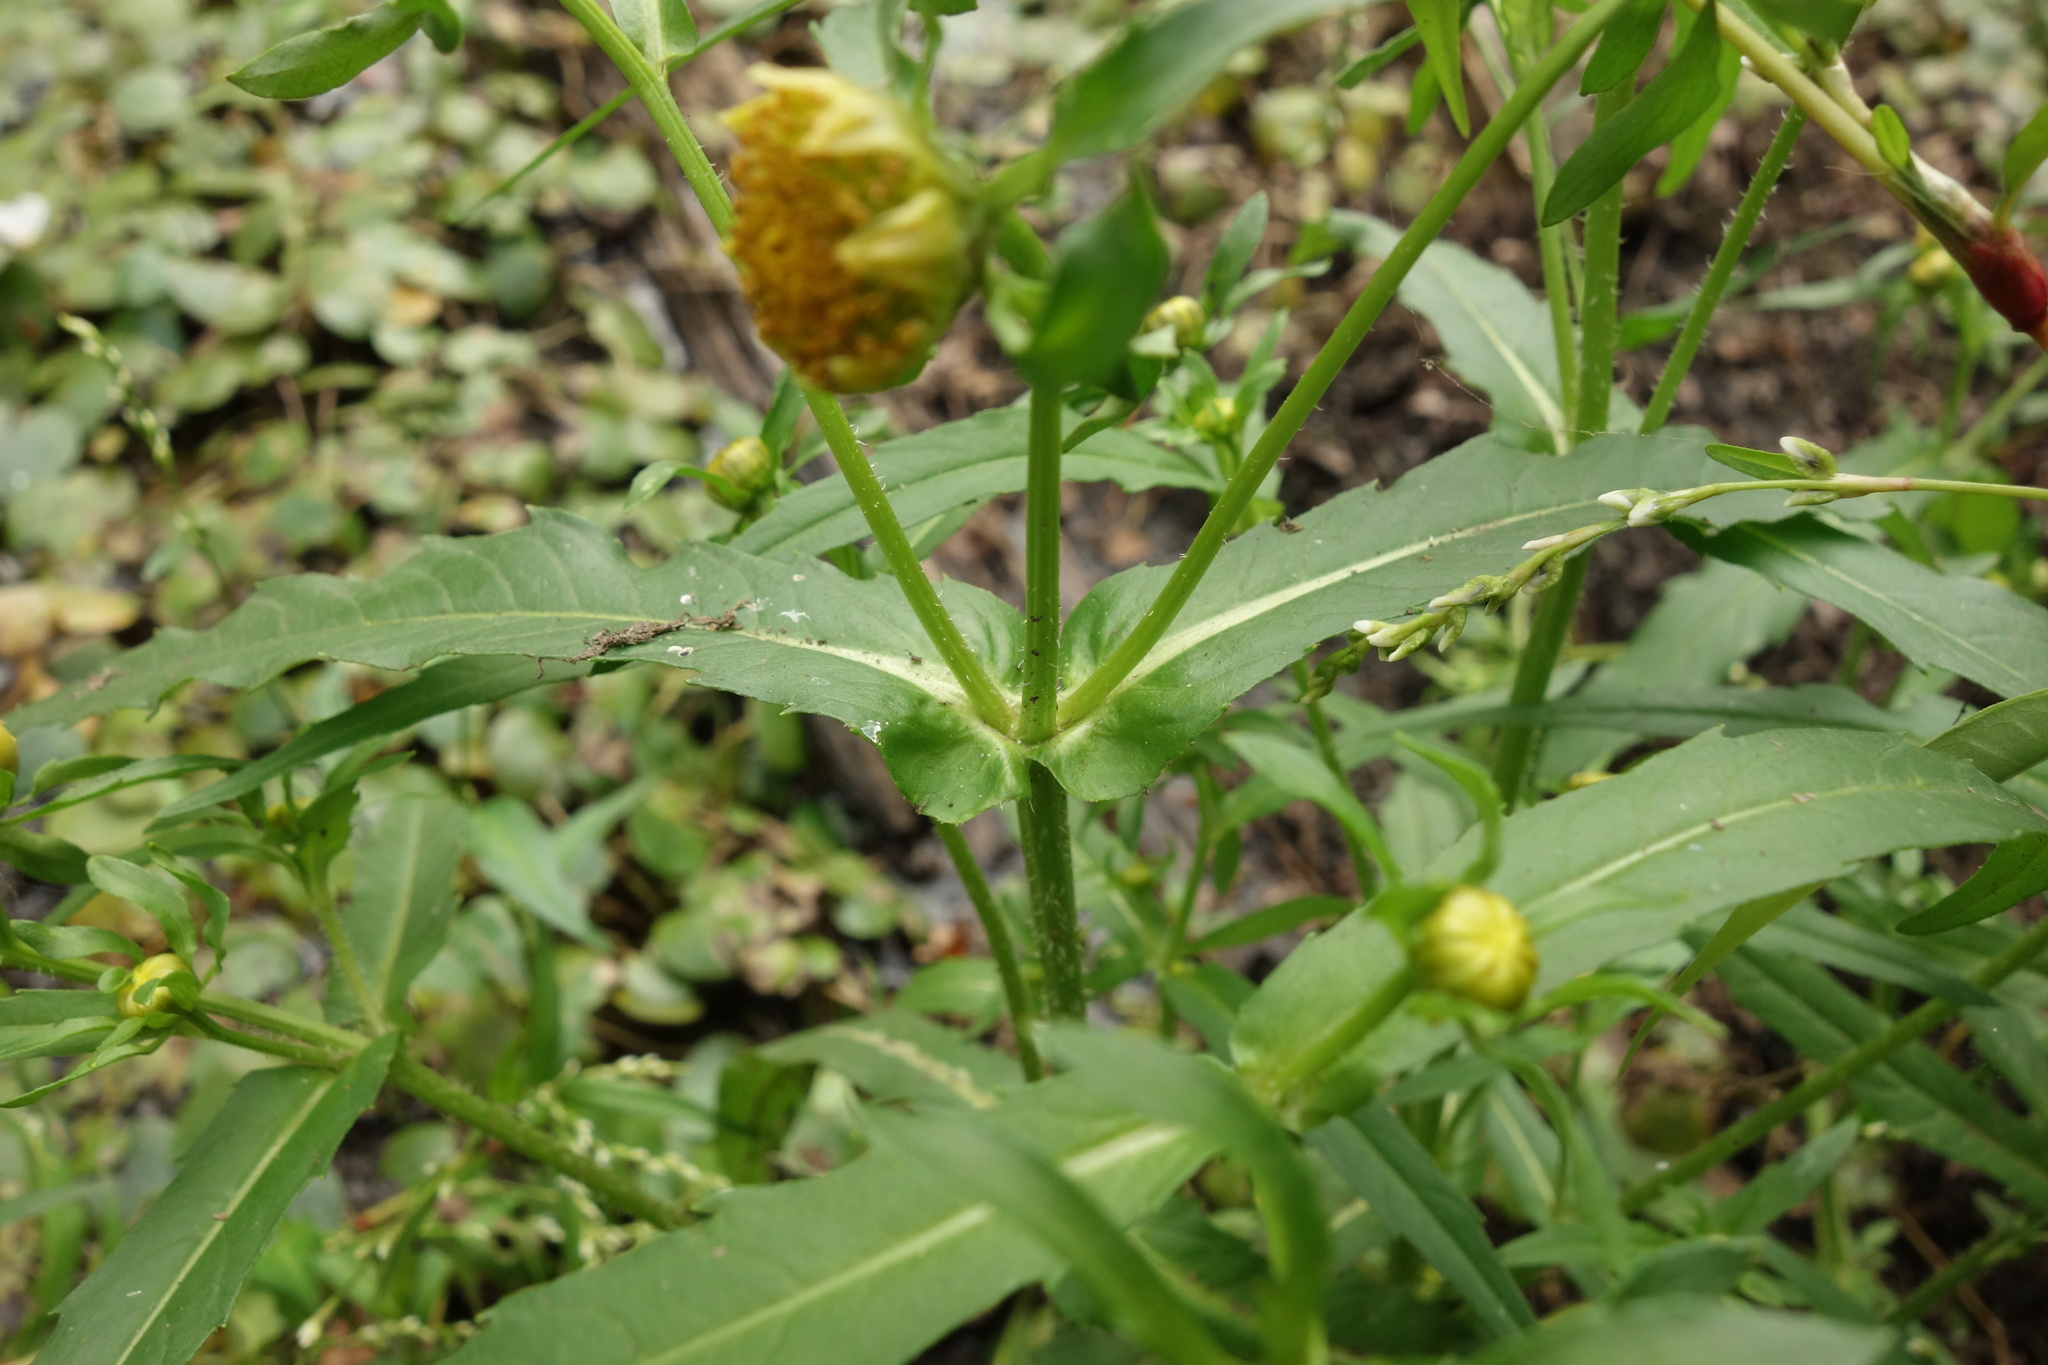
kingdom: Plantae
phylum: Tracheophyta
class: Magnoliopsida
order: Asterales
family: Asteraceae
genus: Bidens
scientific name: Bidens cernua
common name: Nodding bur-marigold
